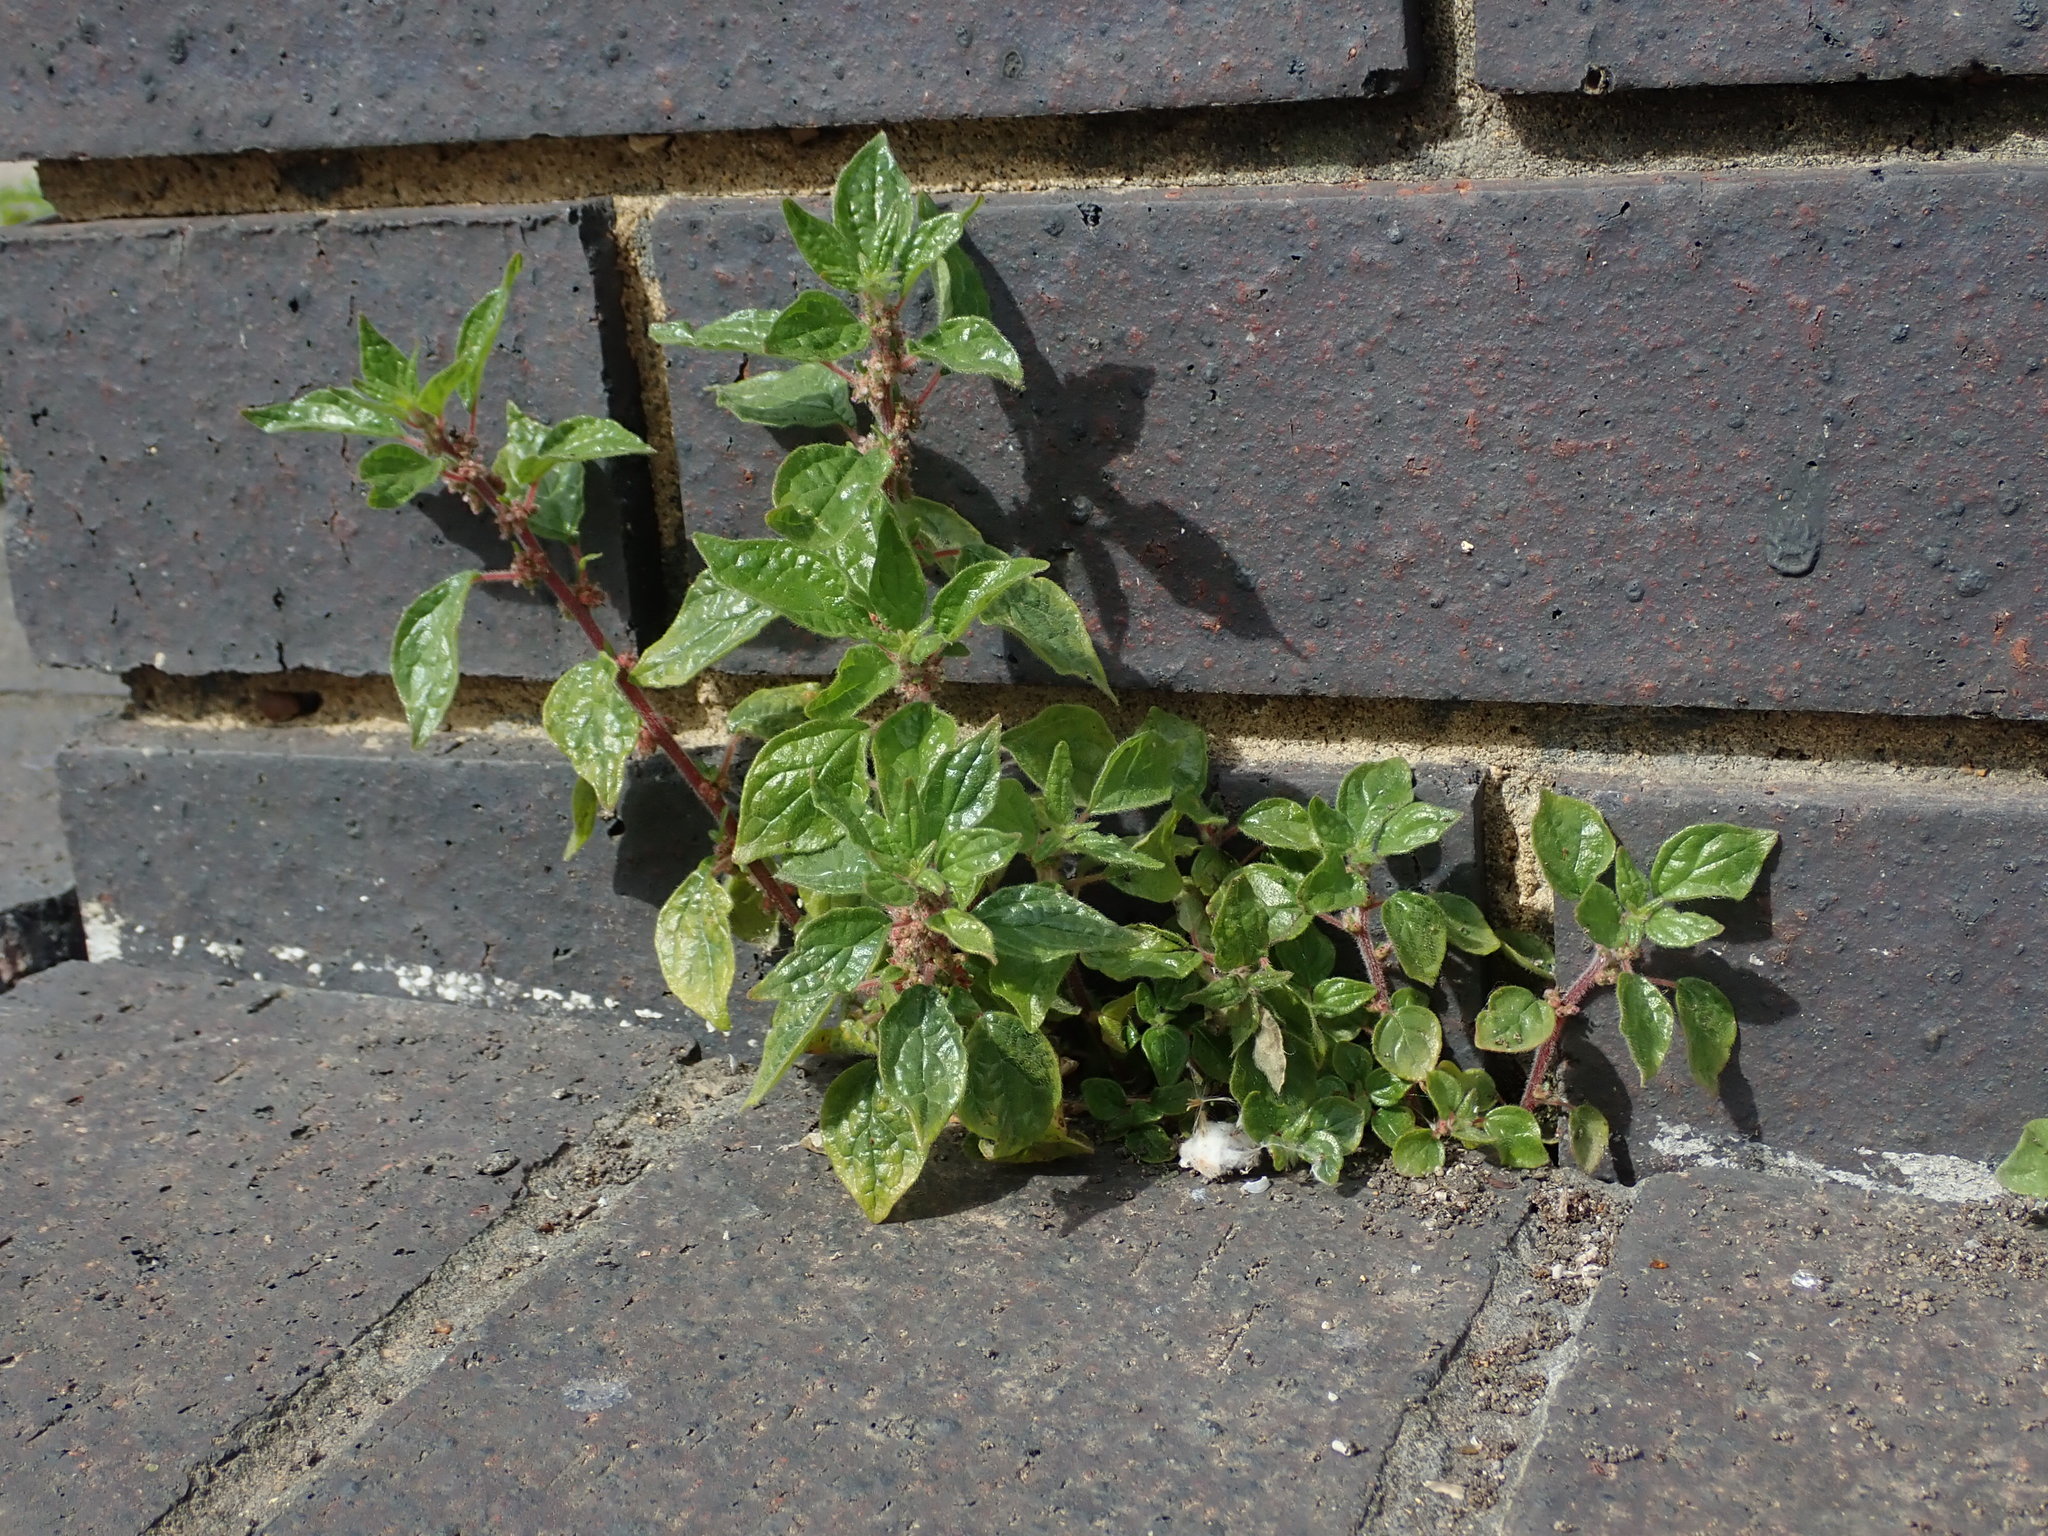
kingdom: Plantae
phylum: Tracheophyta
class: Magnoliopsida
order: Rosales
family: Urticaceae
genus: Parietaria
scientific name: Parietaria judaica
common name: Pellitory-of-the-wall
